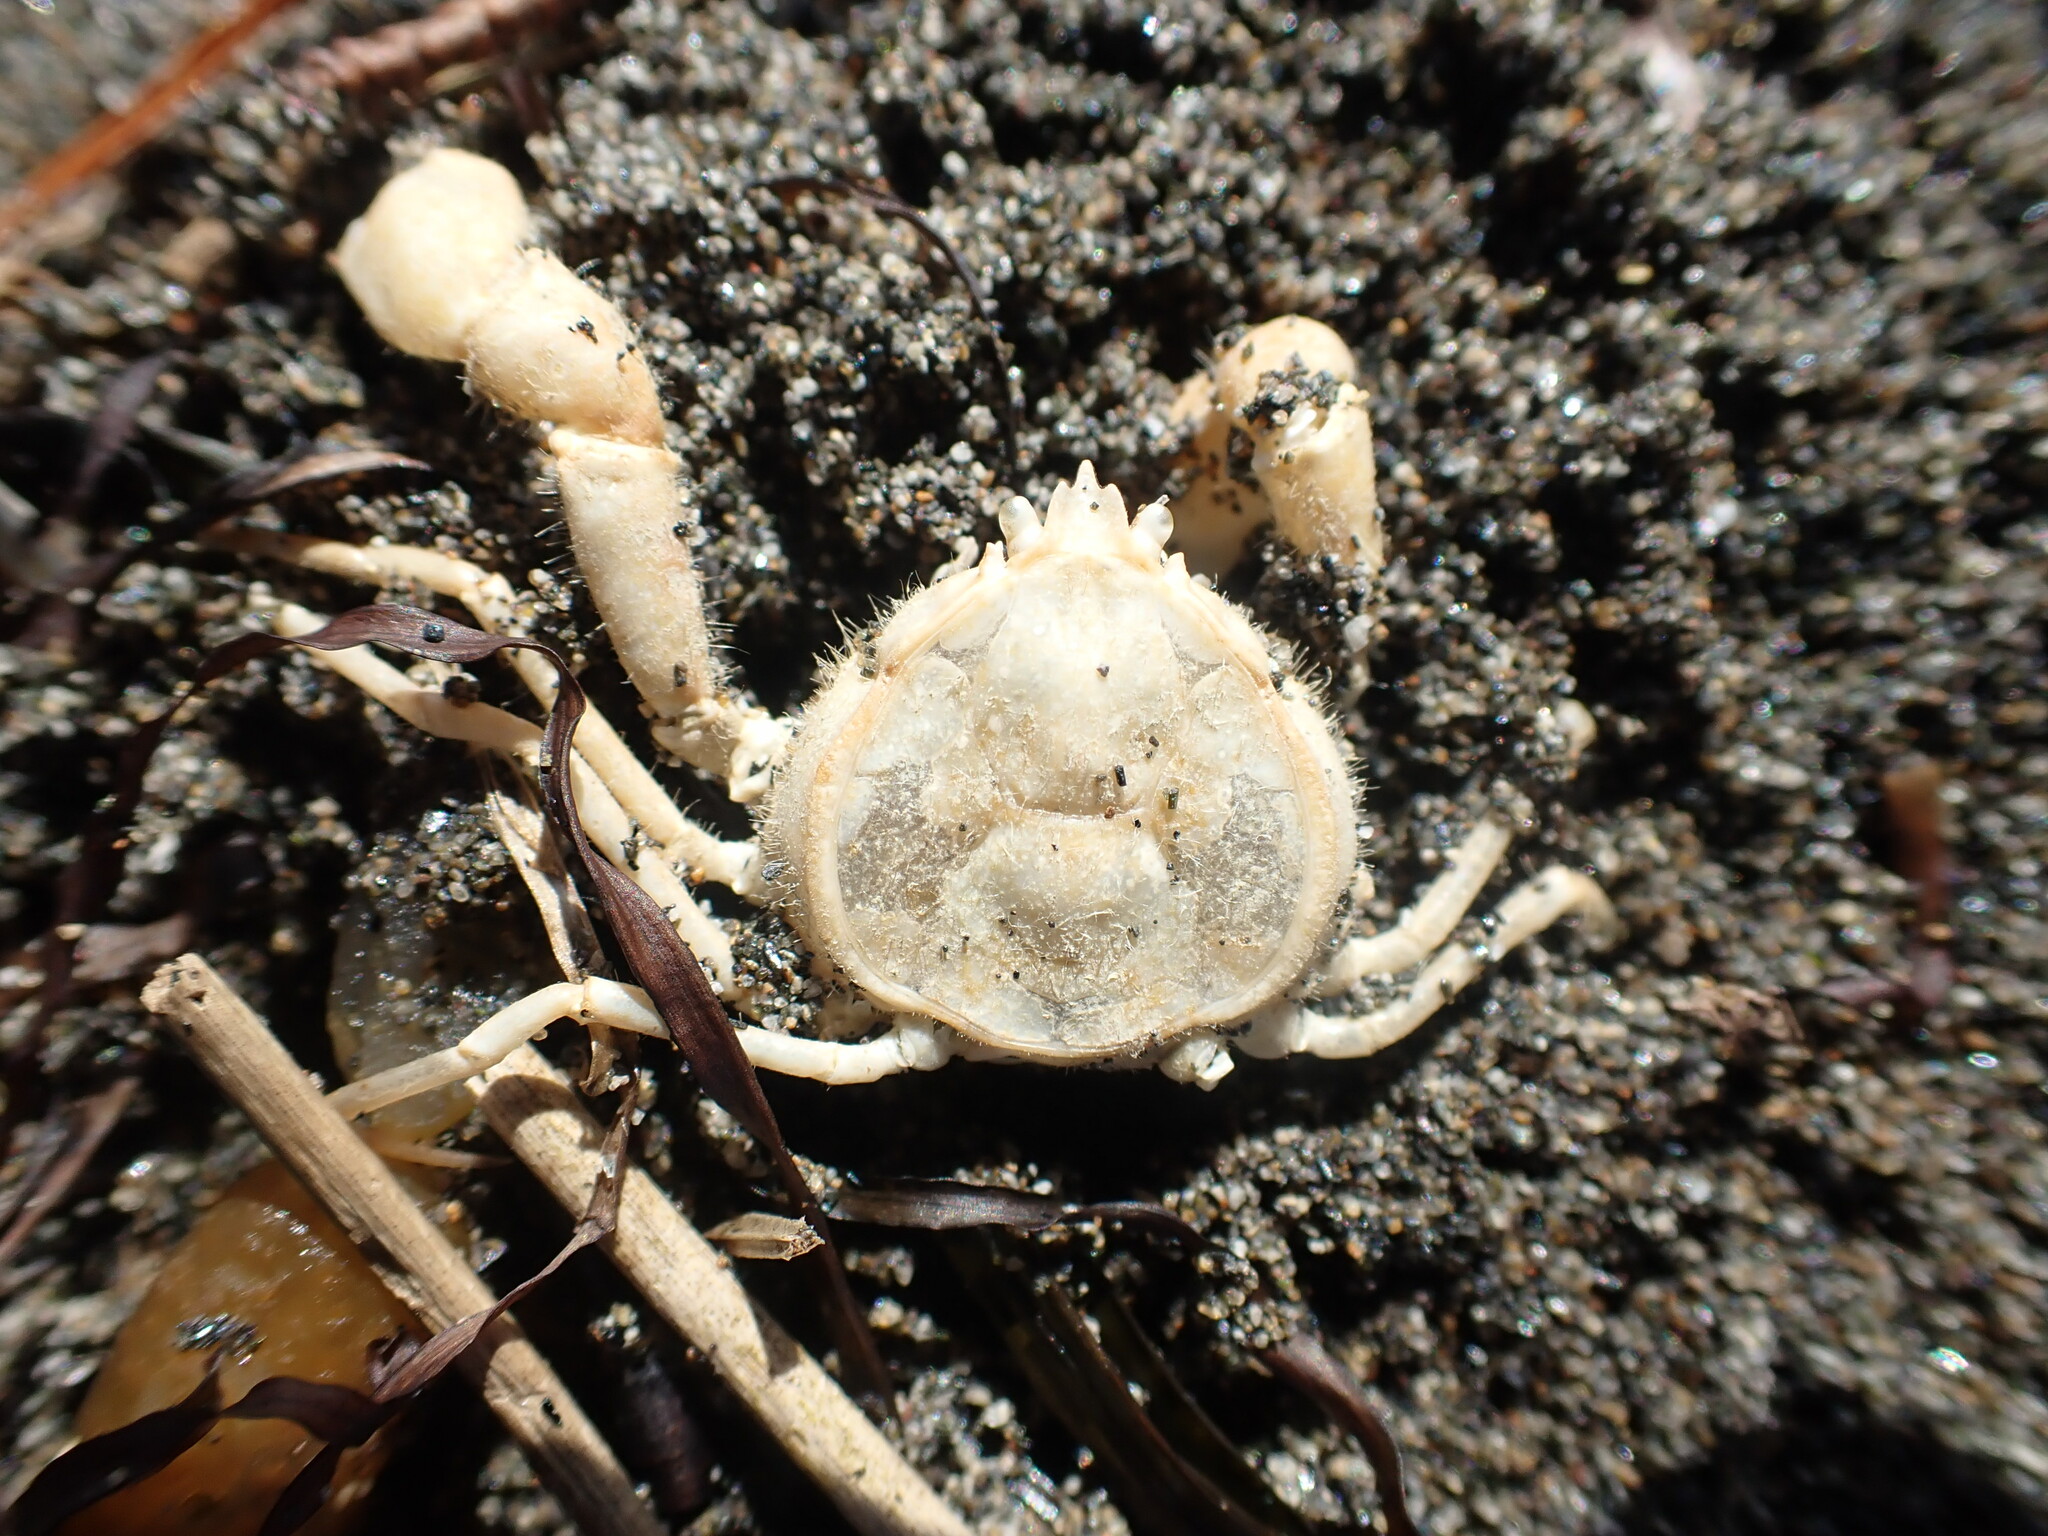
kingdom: Animalia
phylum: Arthropoda
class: Malacostraca
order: Decapoda
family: Hymenosomatidae
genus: Halicarcinus
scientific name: Halicarcinus whitei
